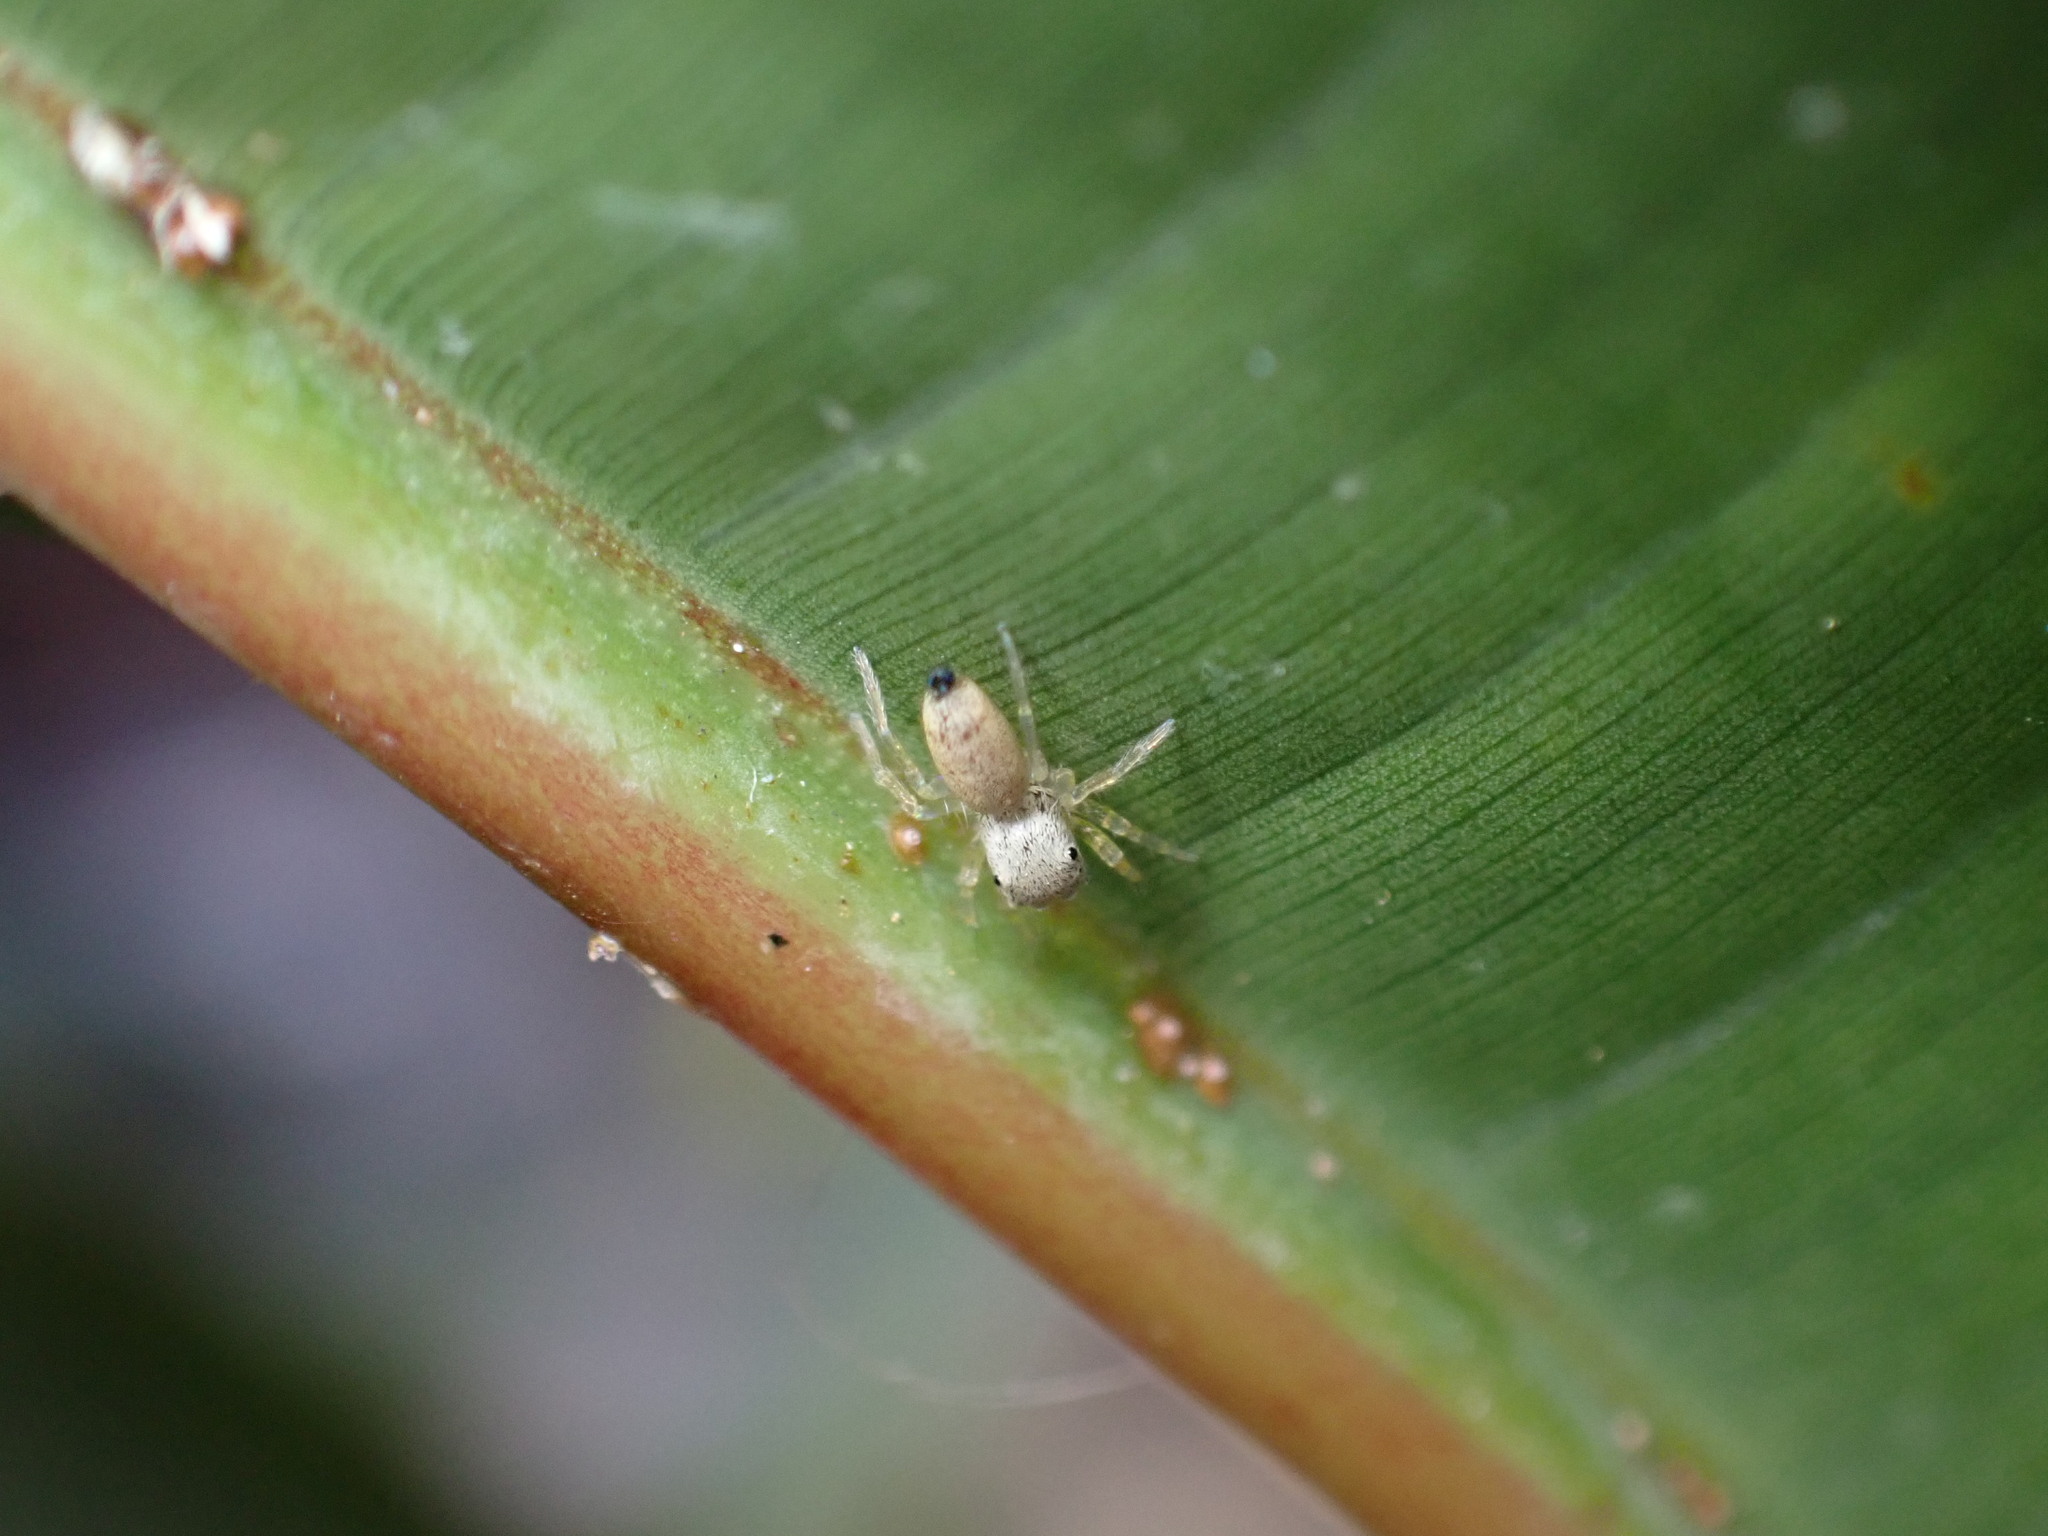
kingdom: Animalia
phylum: Arthropoda
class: Arachnida
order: Araneae
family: Salticidae
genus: Cosmophasis
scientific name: Cosmophasis lami
